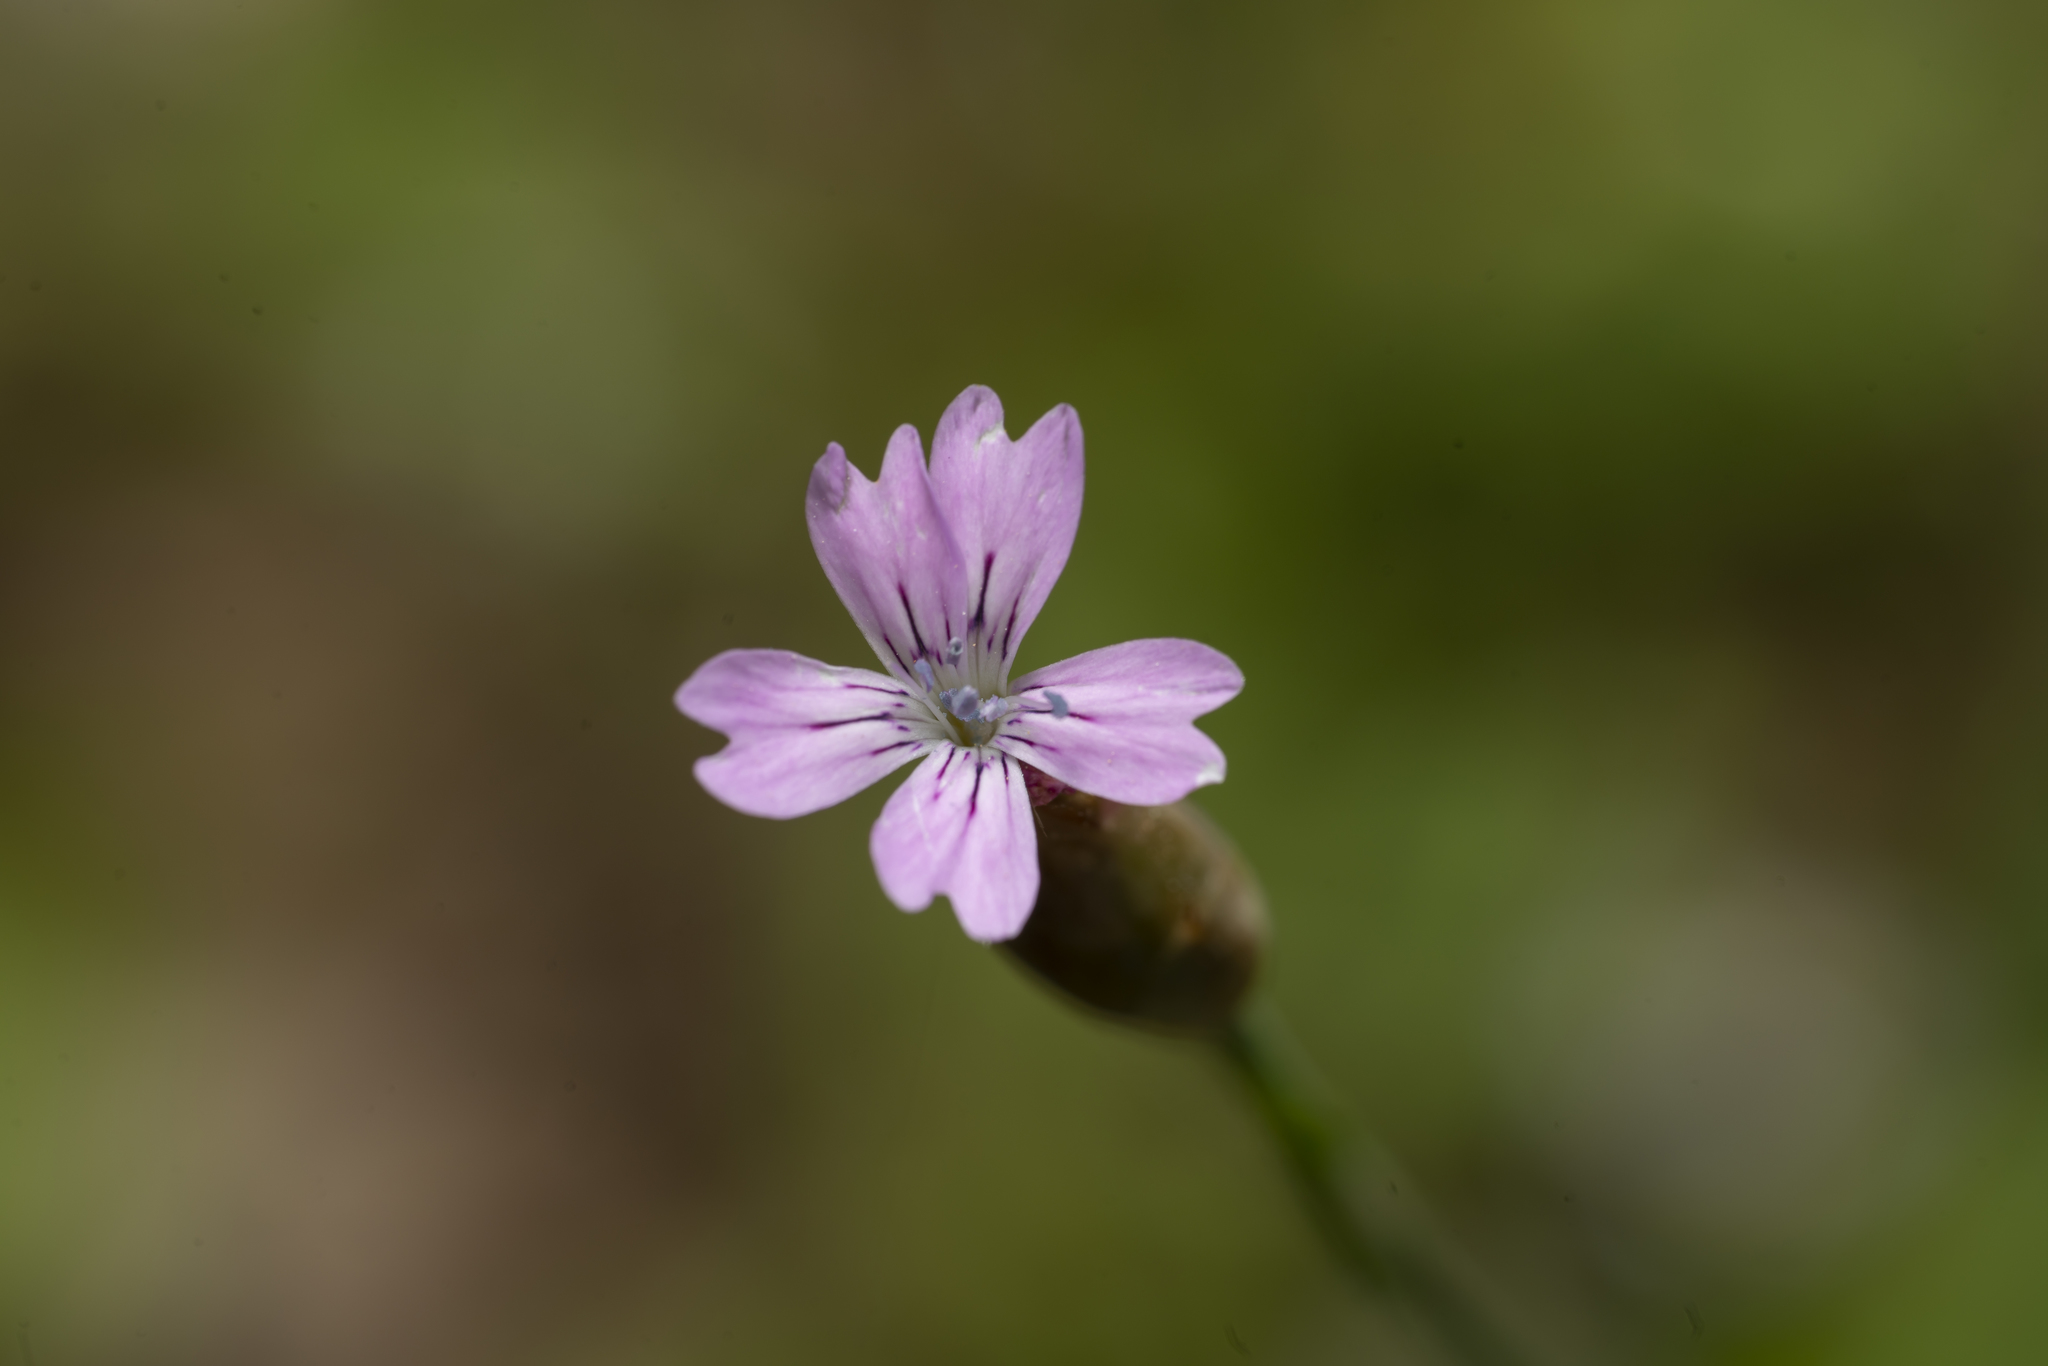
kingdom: Plantae
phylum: Tracheophyta
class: Magnoliopsida
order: Caryophyllales
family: Caryophyllaceae
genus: Petrorhagia
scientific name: Petrorhagia dubia
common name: Hairypink
